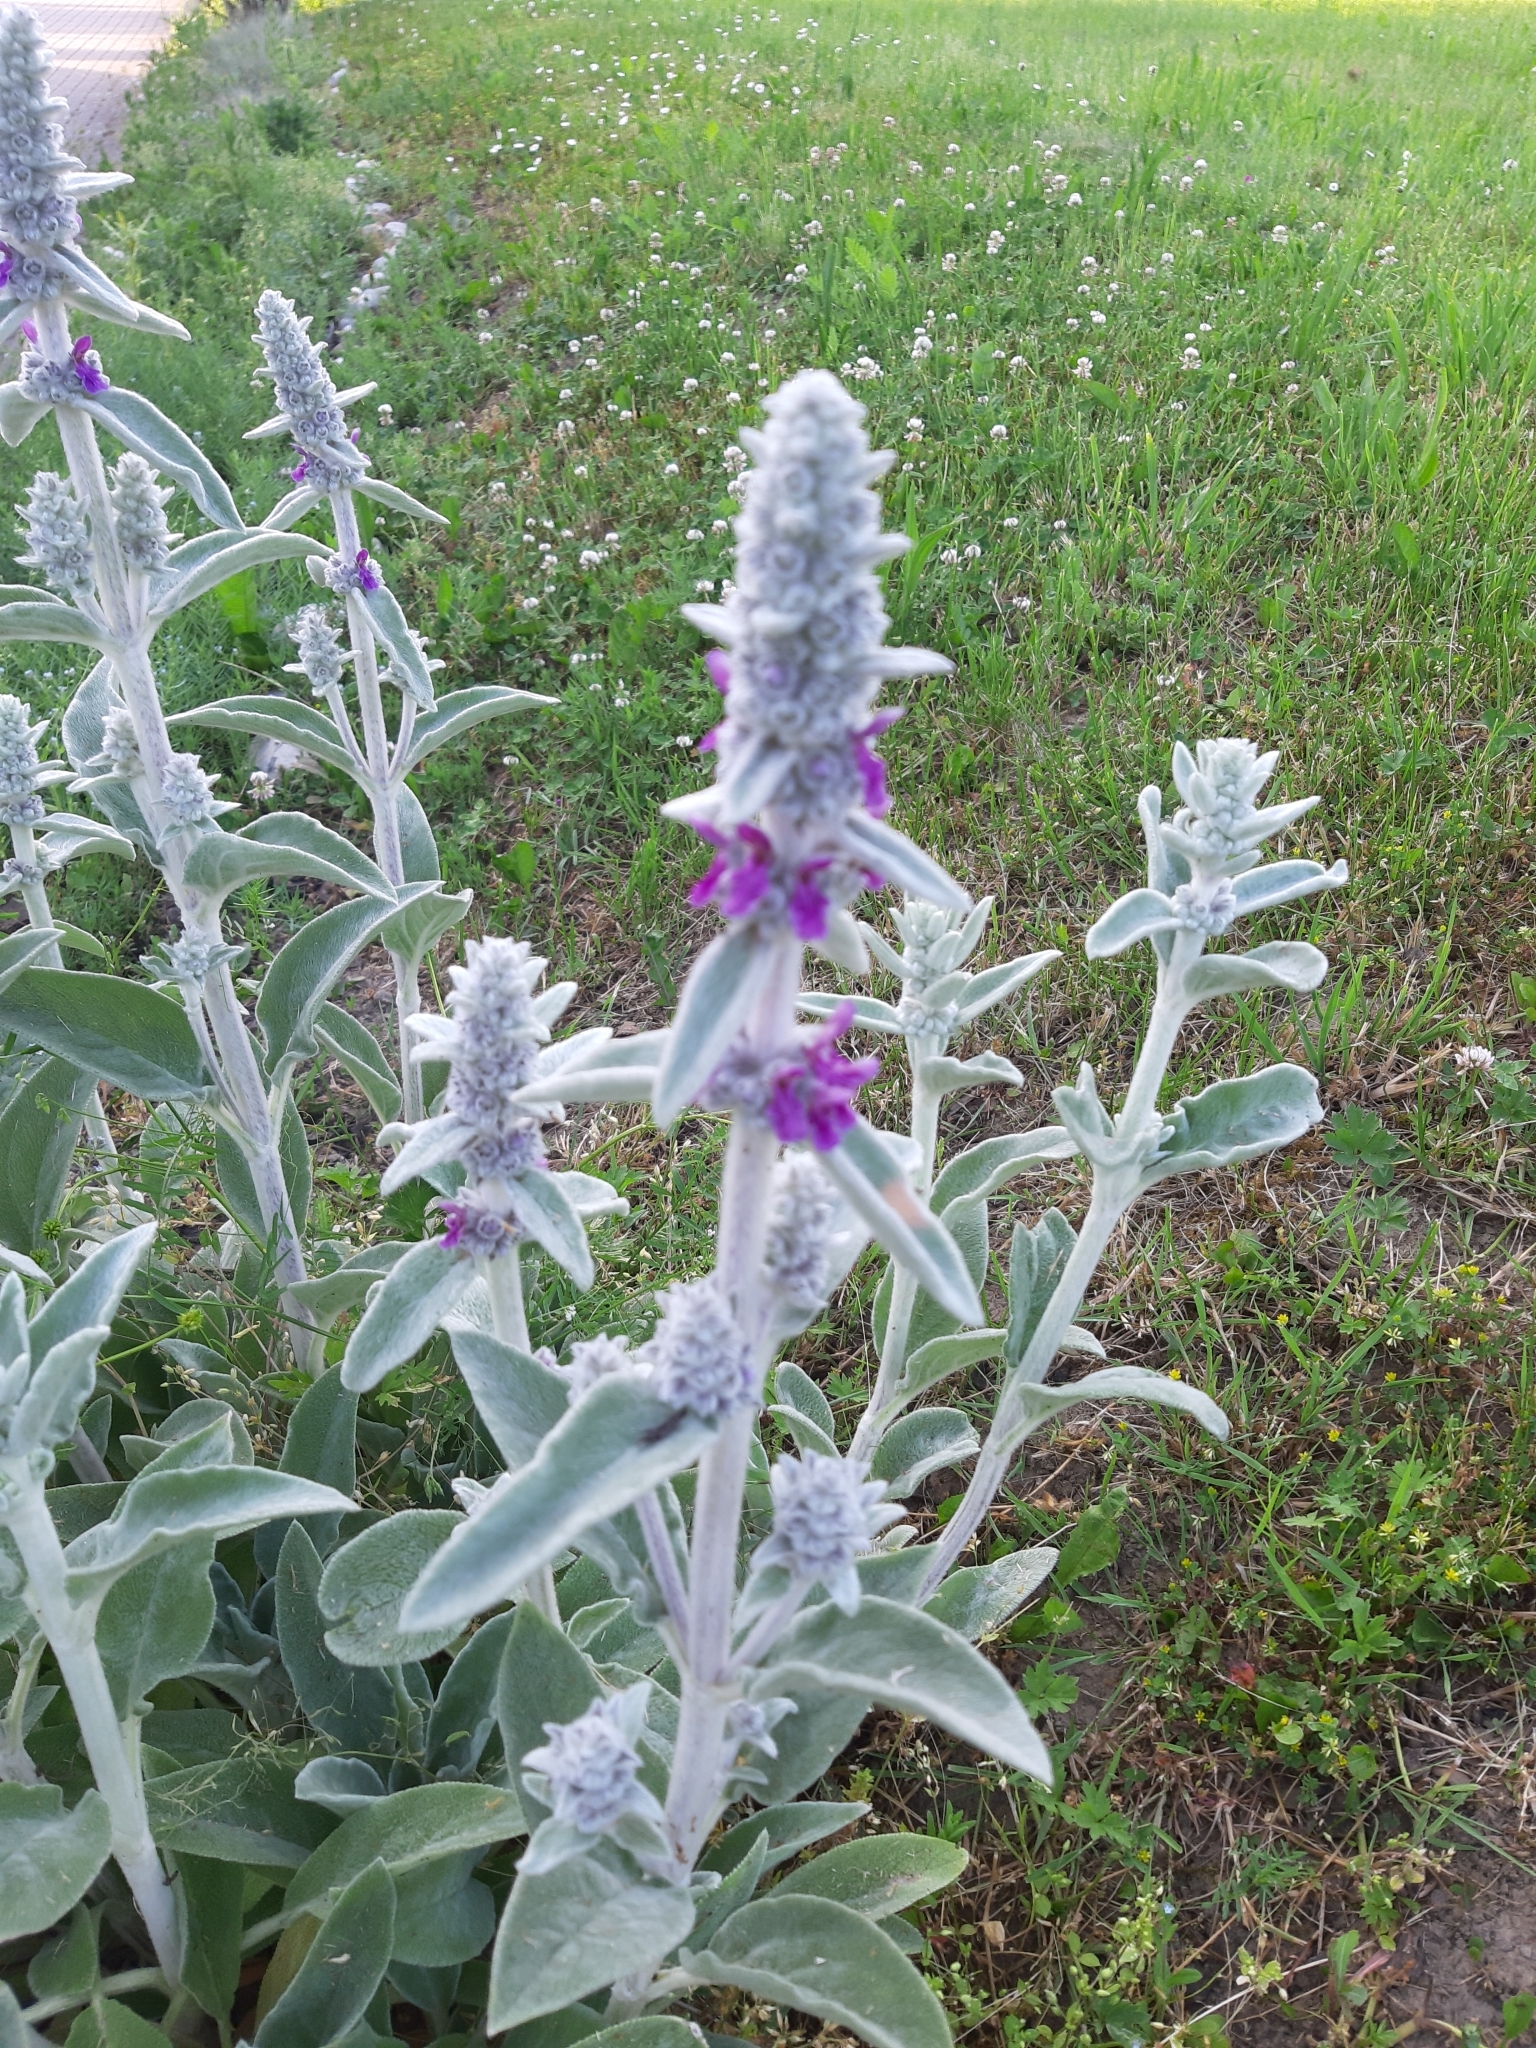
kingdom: Plantae
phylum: Tracheophyta
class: Magnoliopsida
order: Lamiales
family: Lamiaceae
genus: Stachys
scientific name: Stachys byzantina
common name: Lamb's-ear
